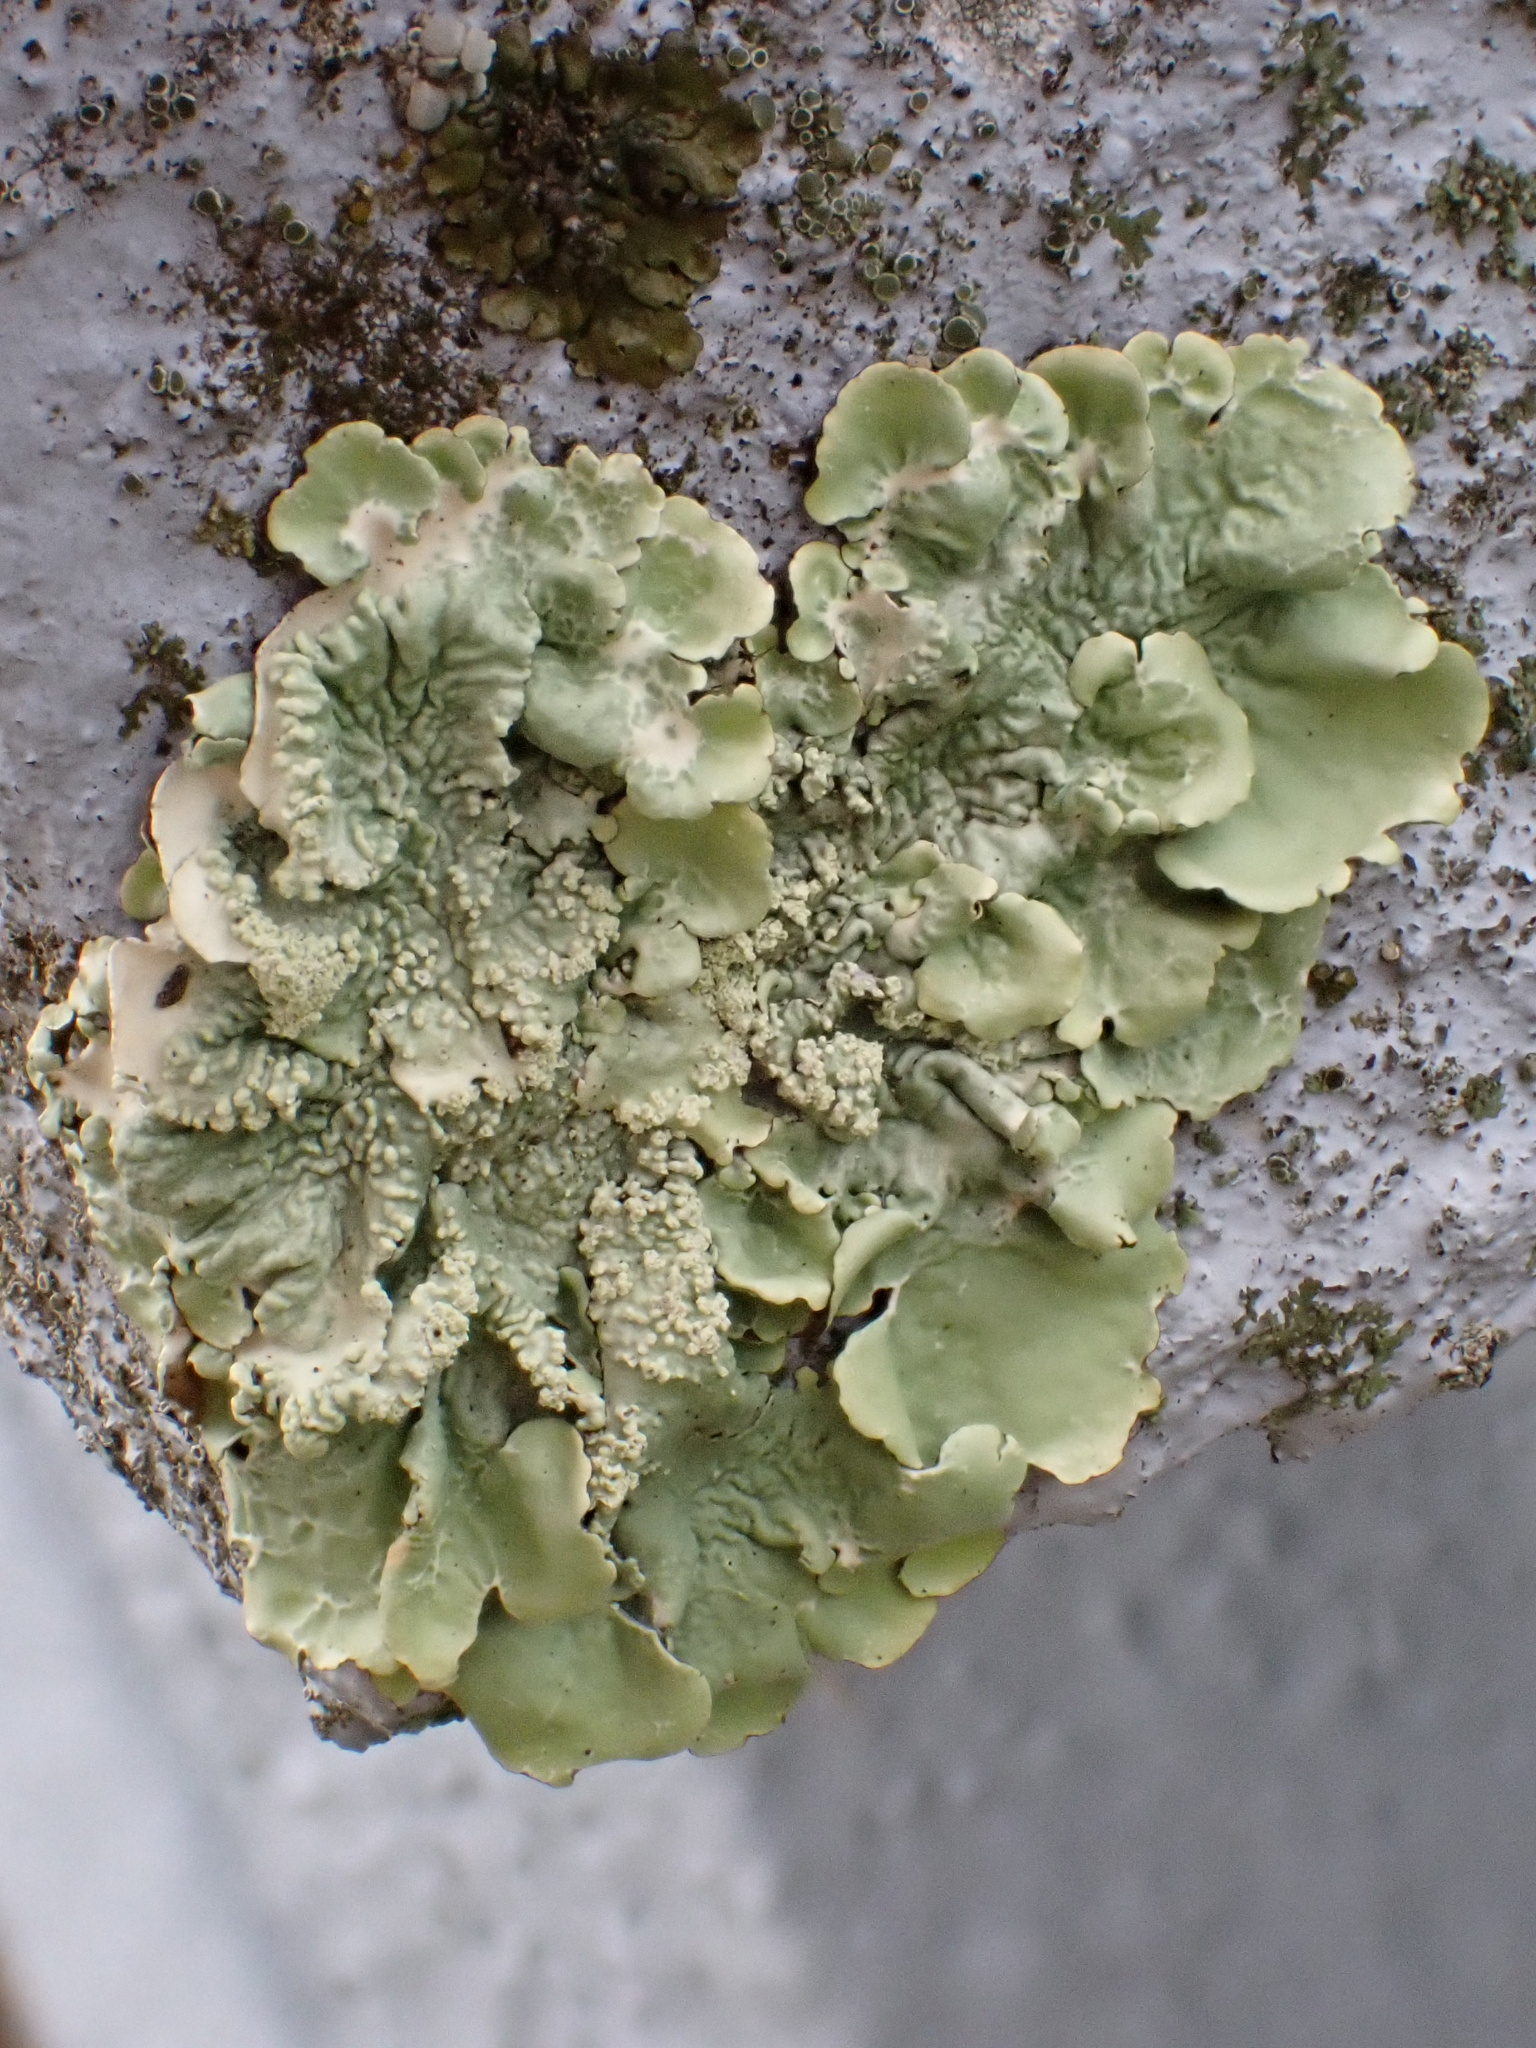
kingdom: Fungi
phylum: Ascomycota
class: Lecanoromycetes
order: Lecanorales
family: Parmeliaceae
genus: Flavoparmelia
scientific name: Flavoparmelia caperata
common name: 40-mile per hour lichen
